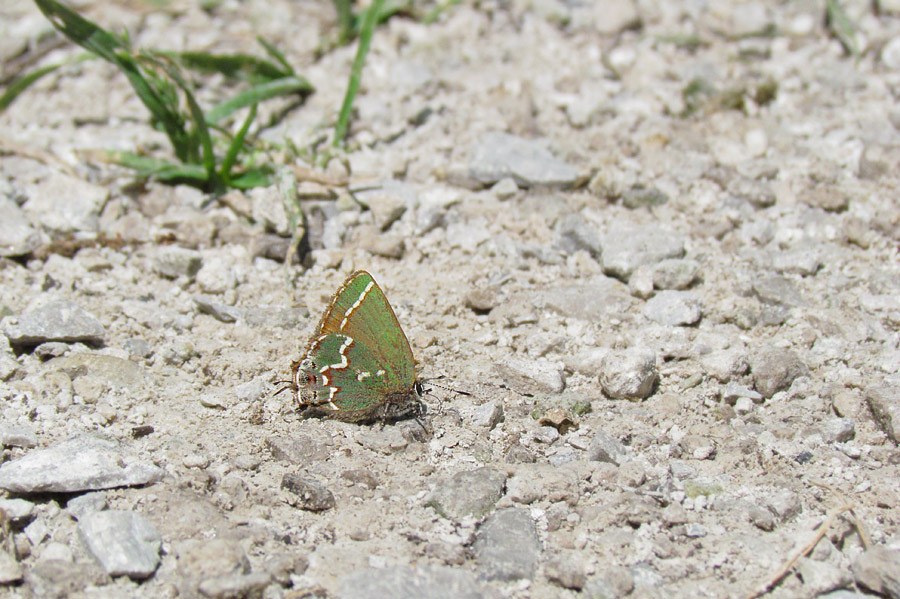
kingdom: Animalia
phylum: Arthropoda
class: Insecta
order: Lepidoptera
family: Lycaenidae
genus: Mitoura
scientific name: Mitoura gryneus
